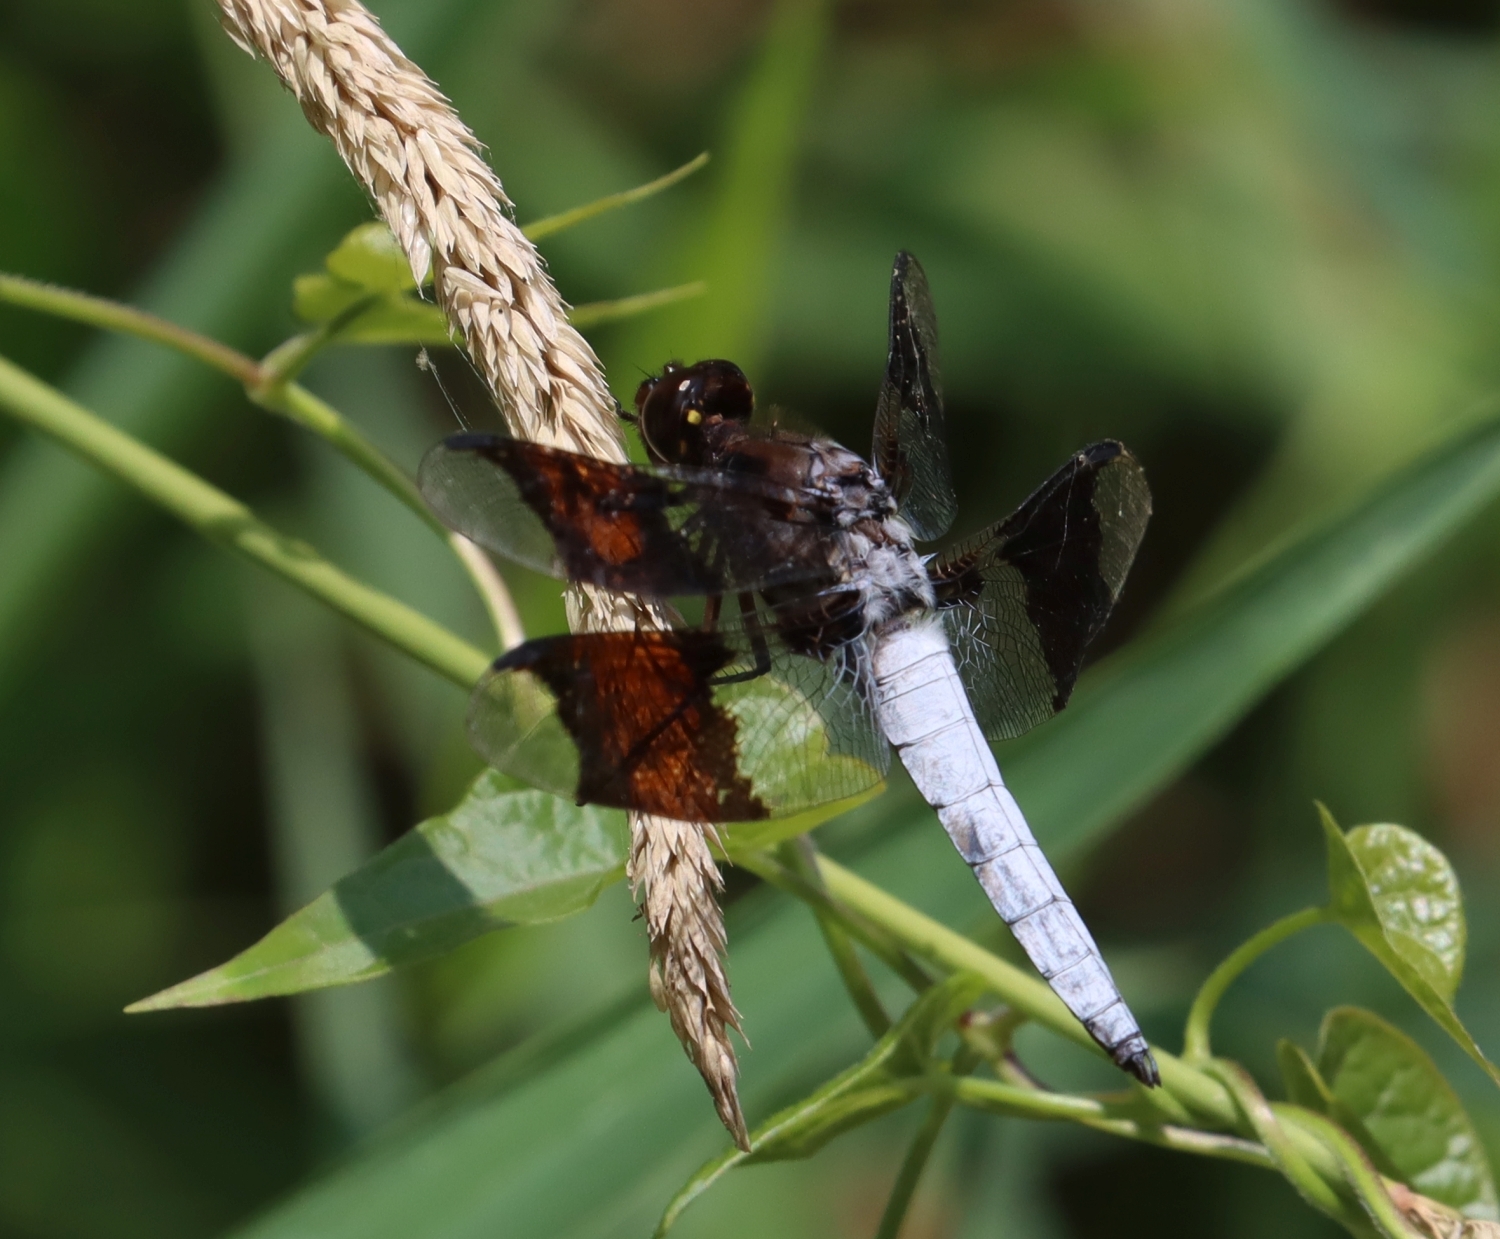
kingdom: Animalia
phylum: Arthropoda
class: Insecta
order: Odonata
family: Libellulidae
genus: Plathemis
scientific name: Plathemis lydia
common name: Common whitetail
